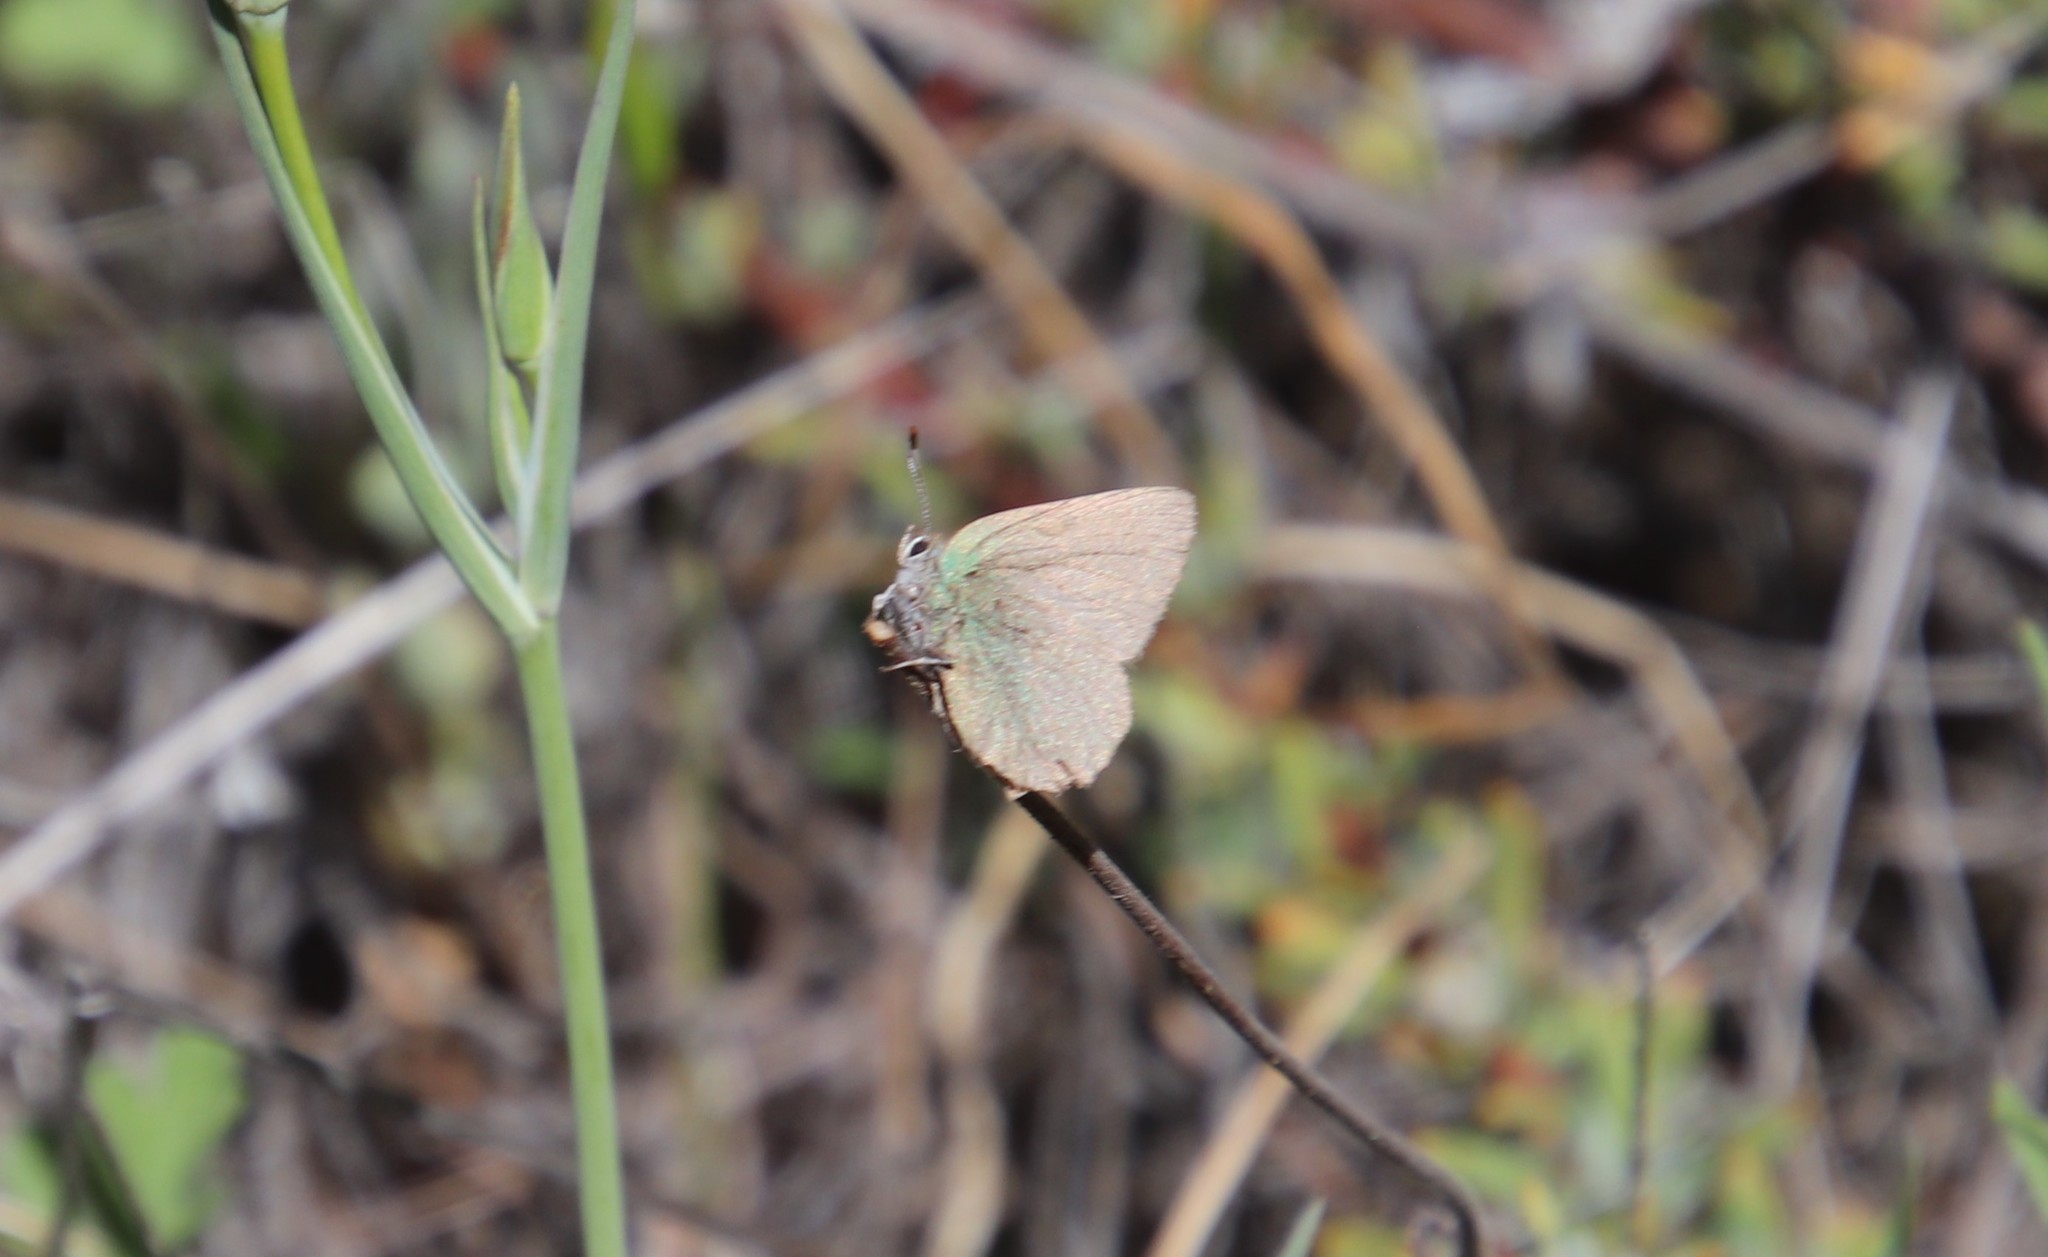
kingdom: Animalia
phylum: Arthropoda
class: Insecta
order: Lepidoptera
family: Lycaenidae
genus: Callophrys
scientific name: Callophrys dumetorum
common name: Bramble hairstreak
